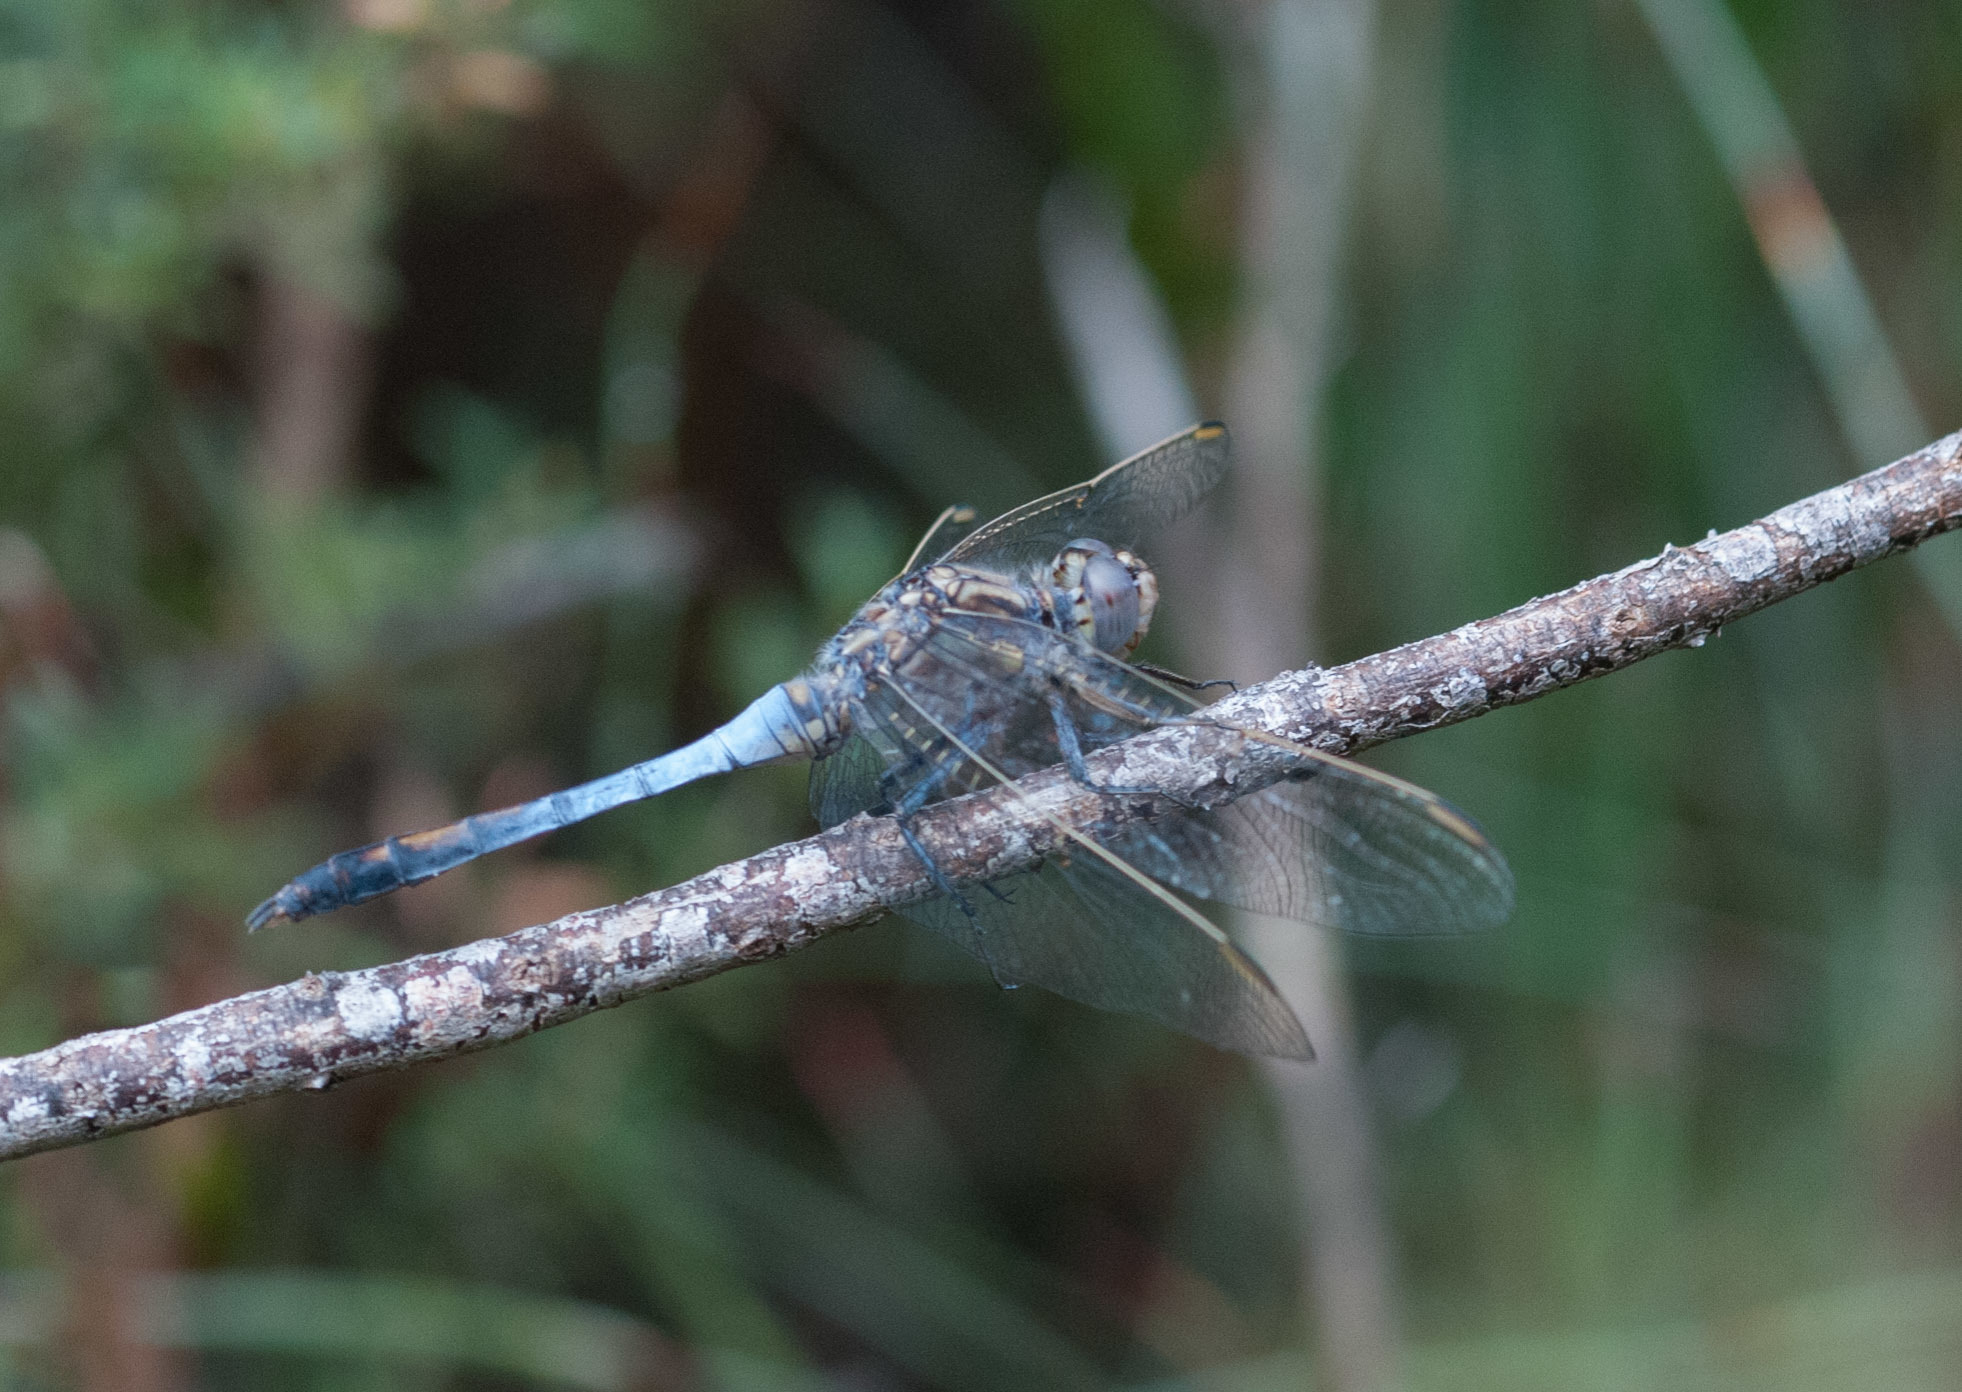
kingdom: Animalia
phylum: Arthropoda
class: Insecta
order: Odonata
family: Libellulidae
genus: Orthetrum
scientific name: Orthetrum caledonicum
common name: Blue skimmer
